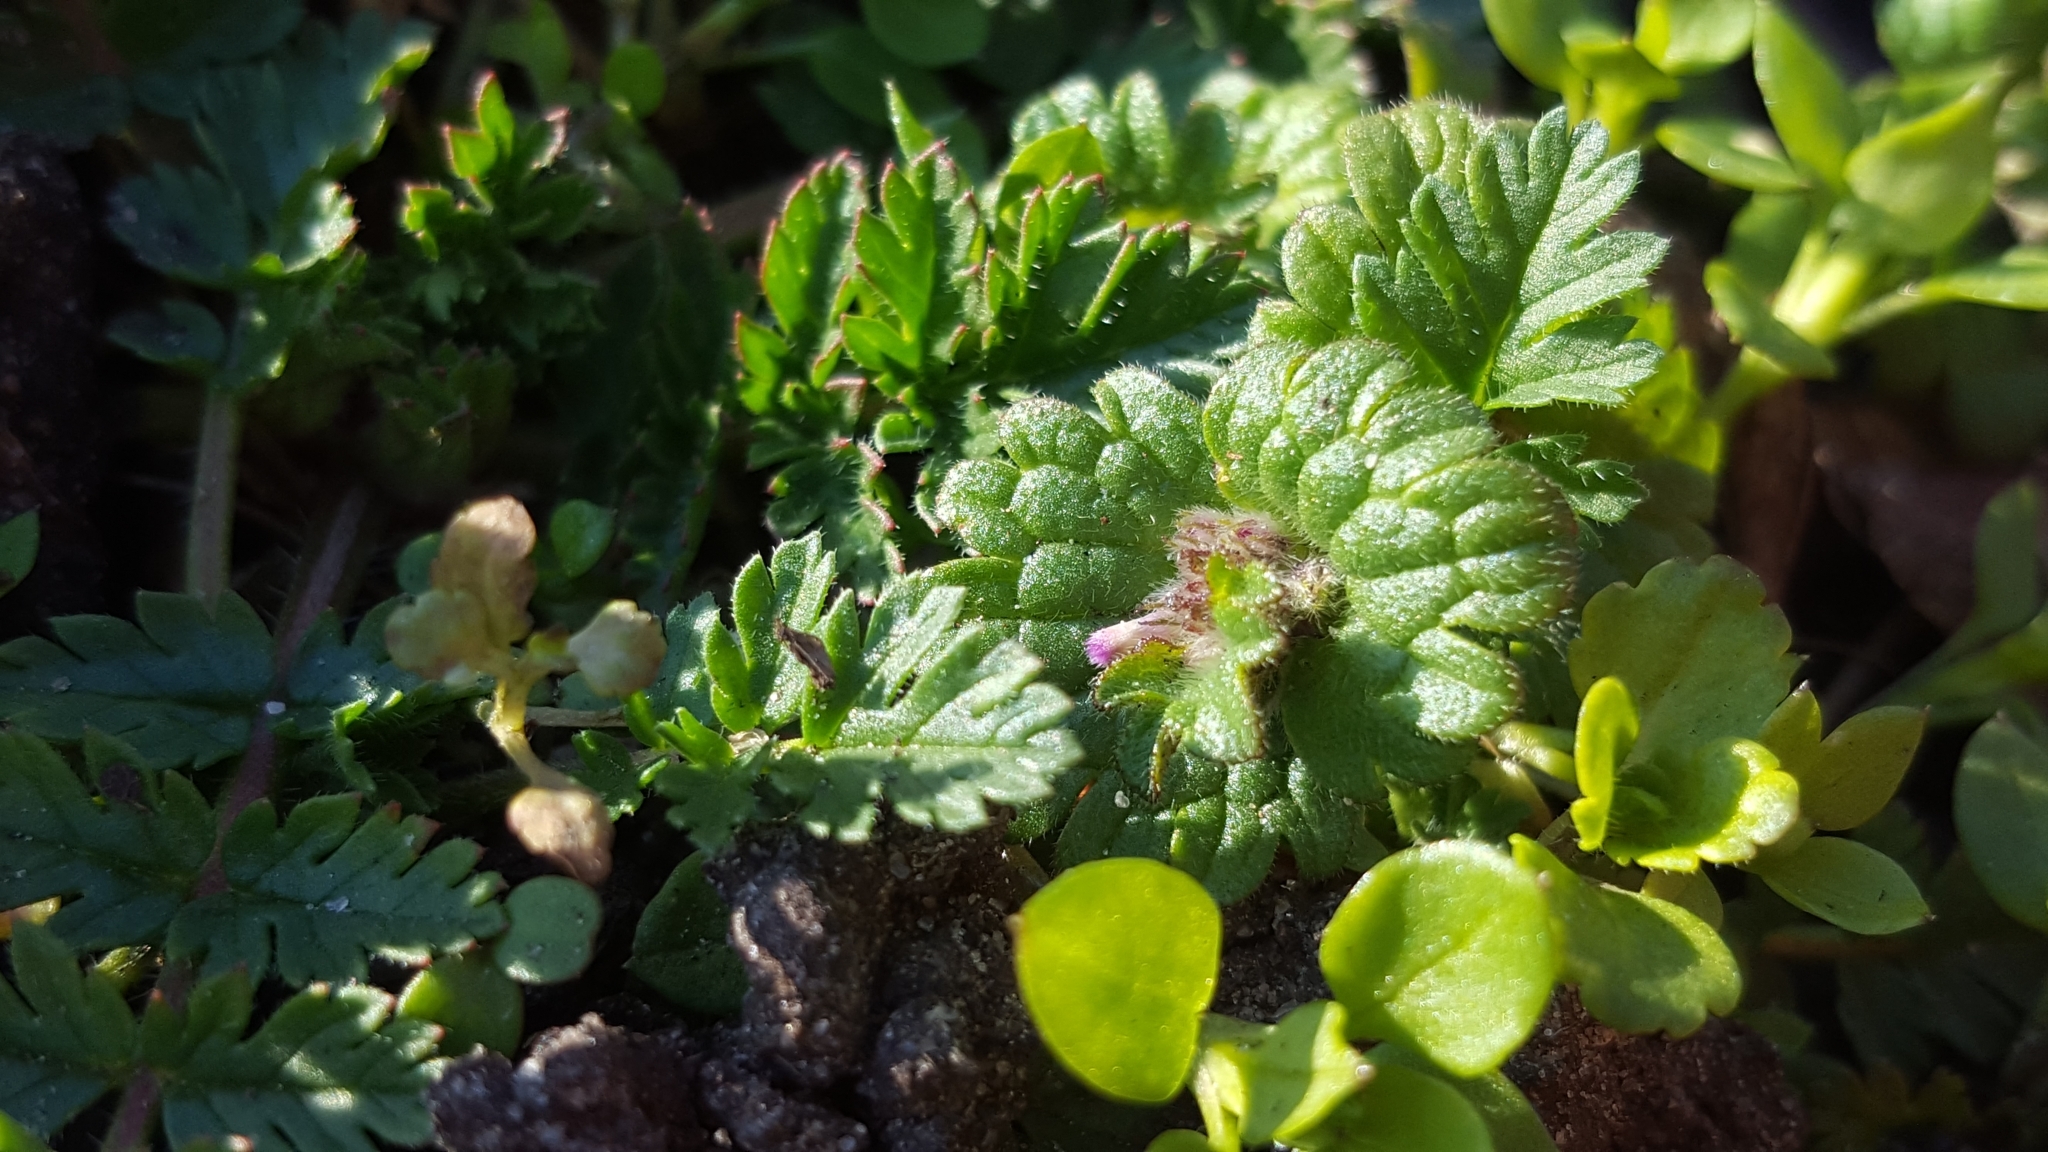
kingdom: Plantae
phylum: Tracheophyta
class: Magnoliopsida
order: Lamiales
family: Lamiaceae
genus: Lamium
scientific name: Lamium amplexicaule
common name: Henbit dead-nettle
